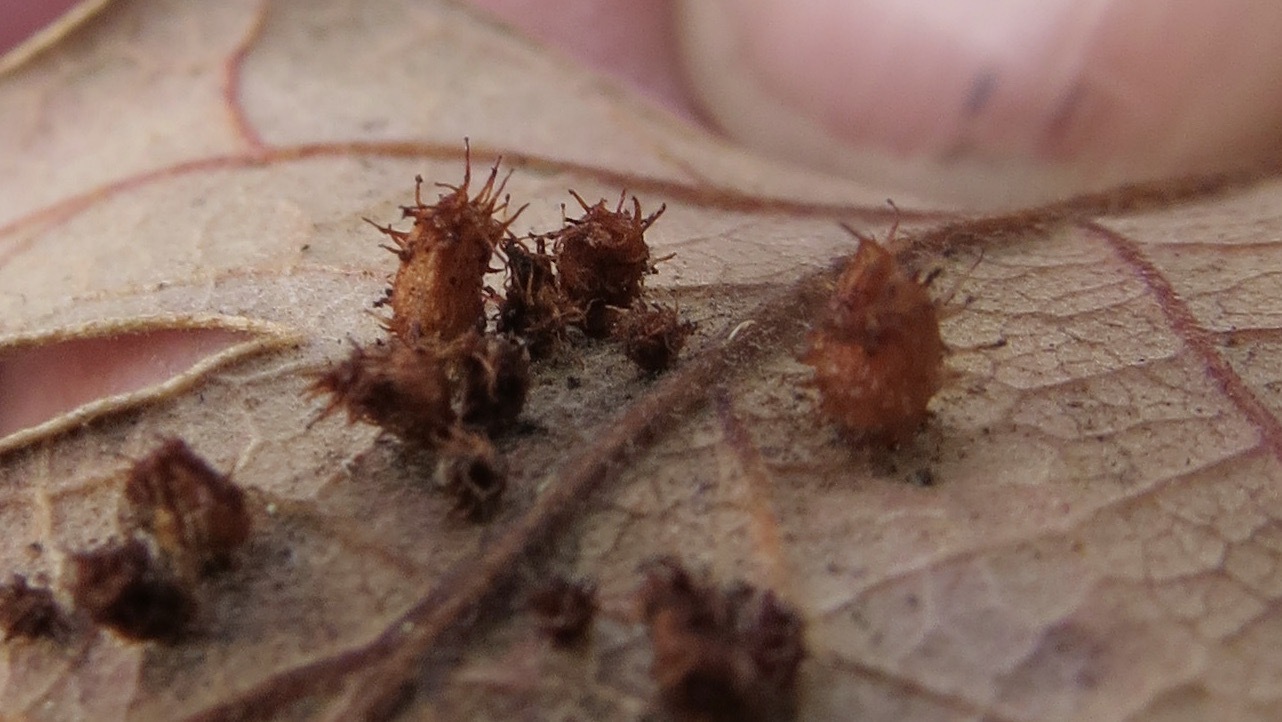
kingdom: Animalia
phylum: Arthropoda
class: Insecta
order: Hymenoptera
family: Cynipidae
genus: Andricus
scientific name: Andricus
